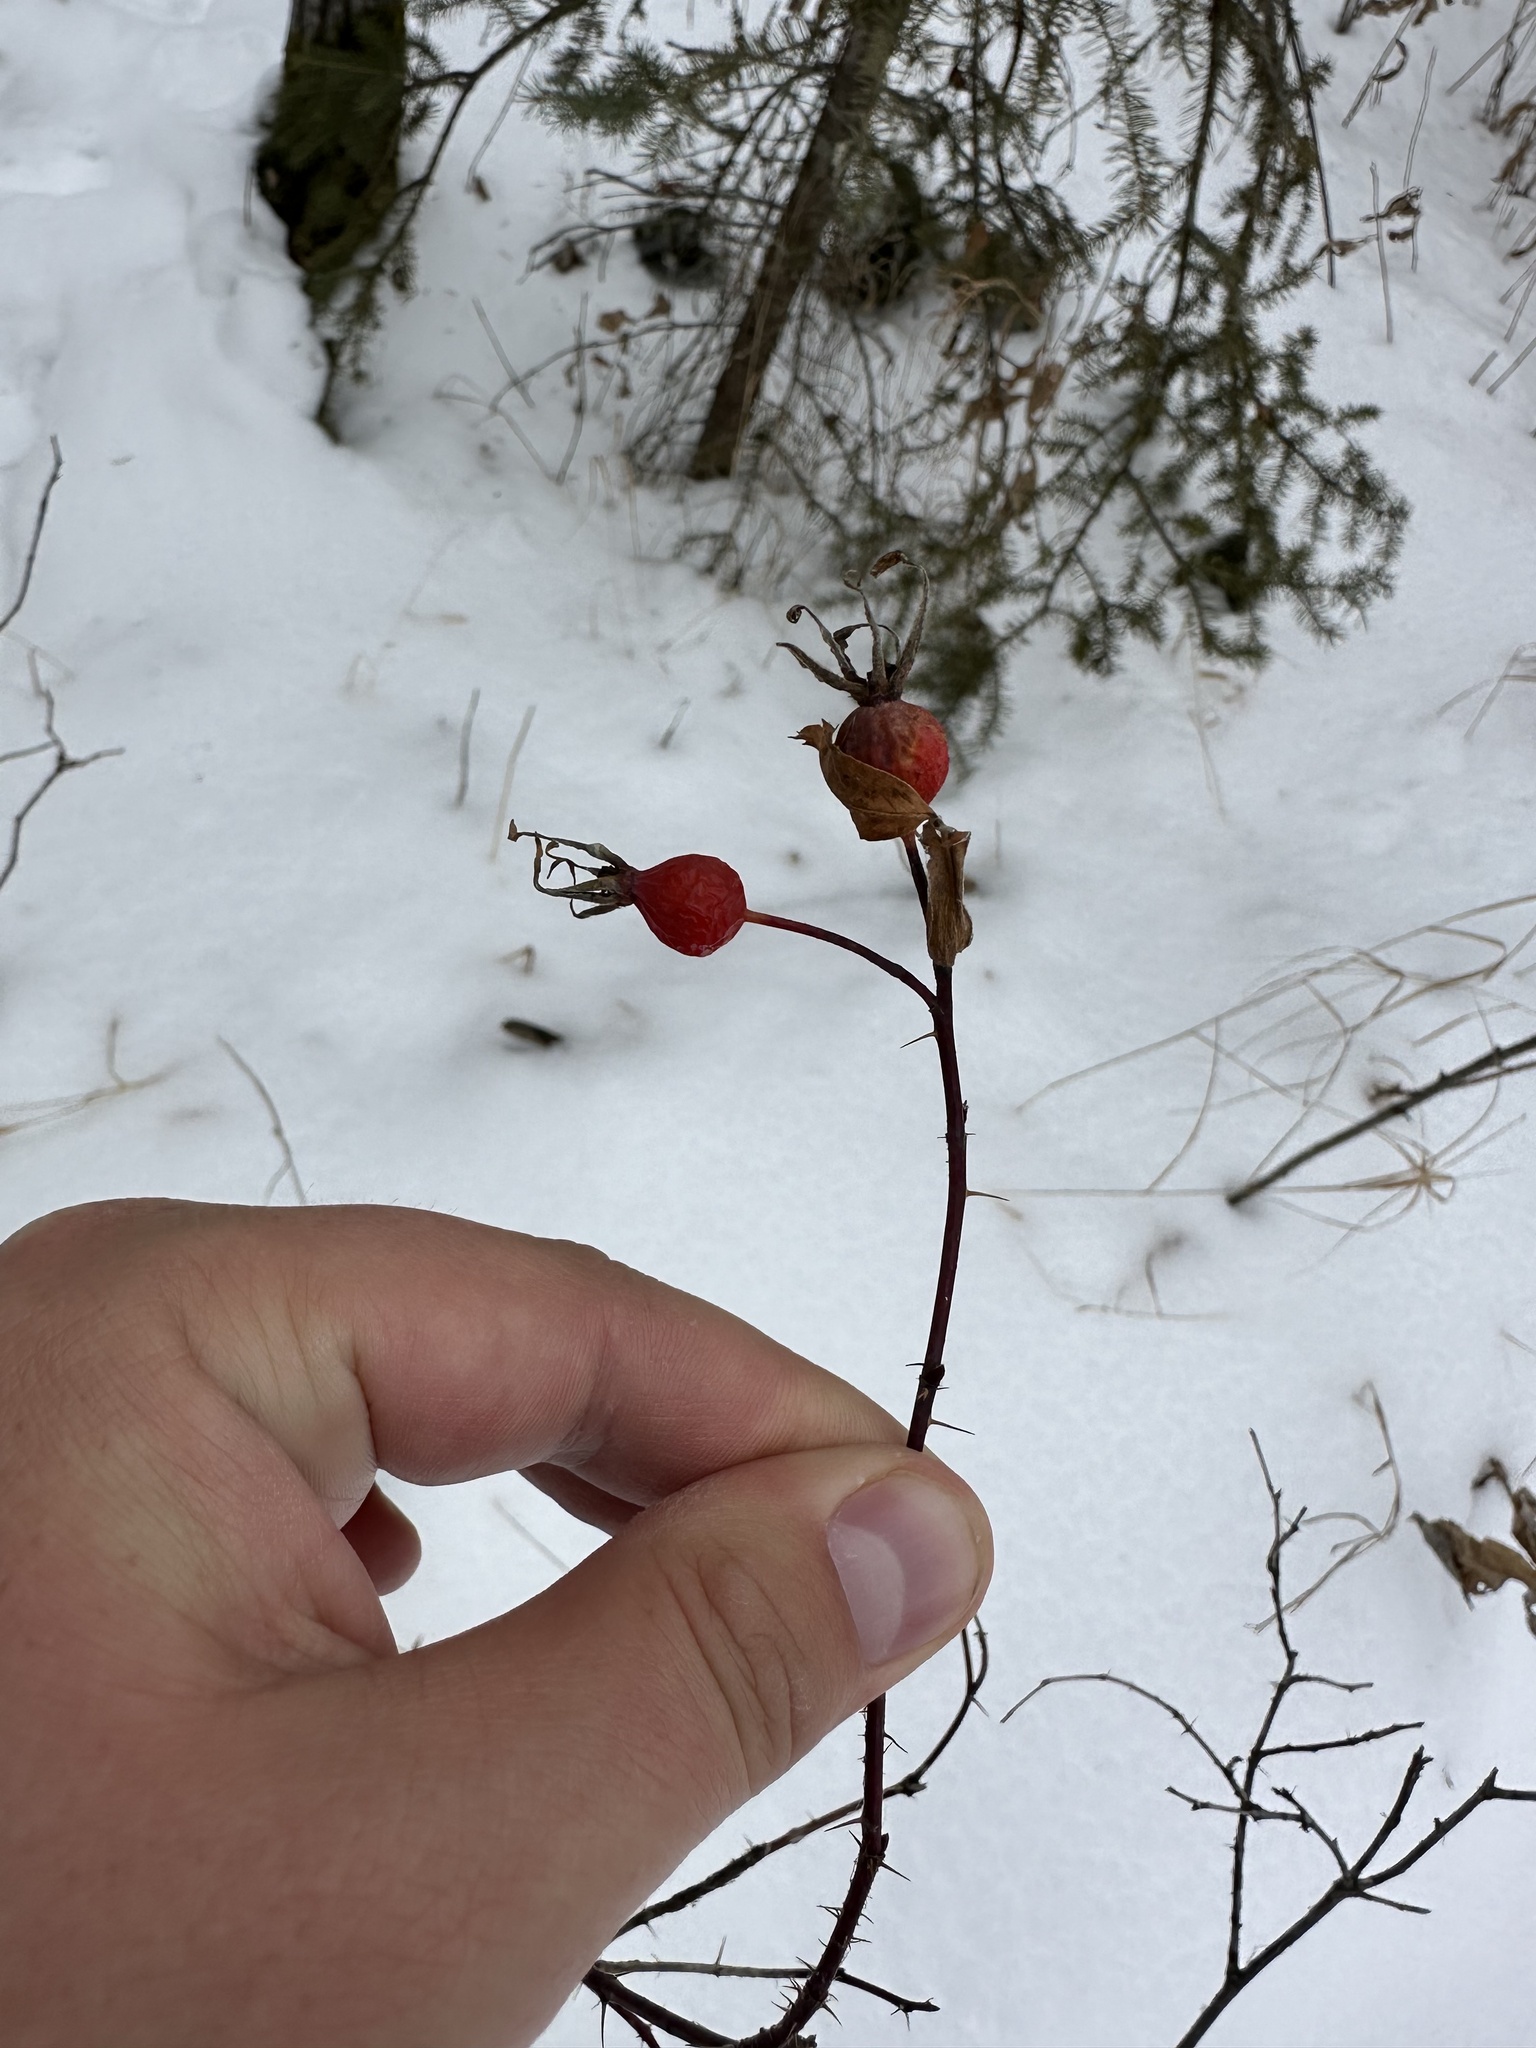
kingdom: Plantae
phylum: Tracheophyta
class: Magnoliopsida
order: Rosales
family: Rosaceae
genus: Rosa
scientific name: Rosa woodsii
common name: Woods's rose
